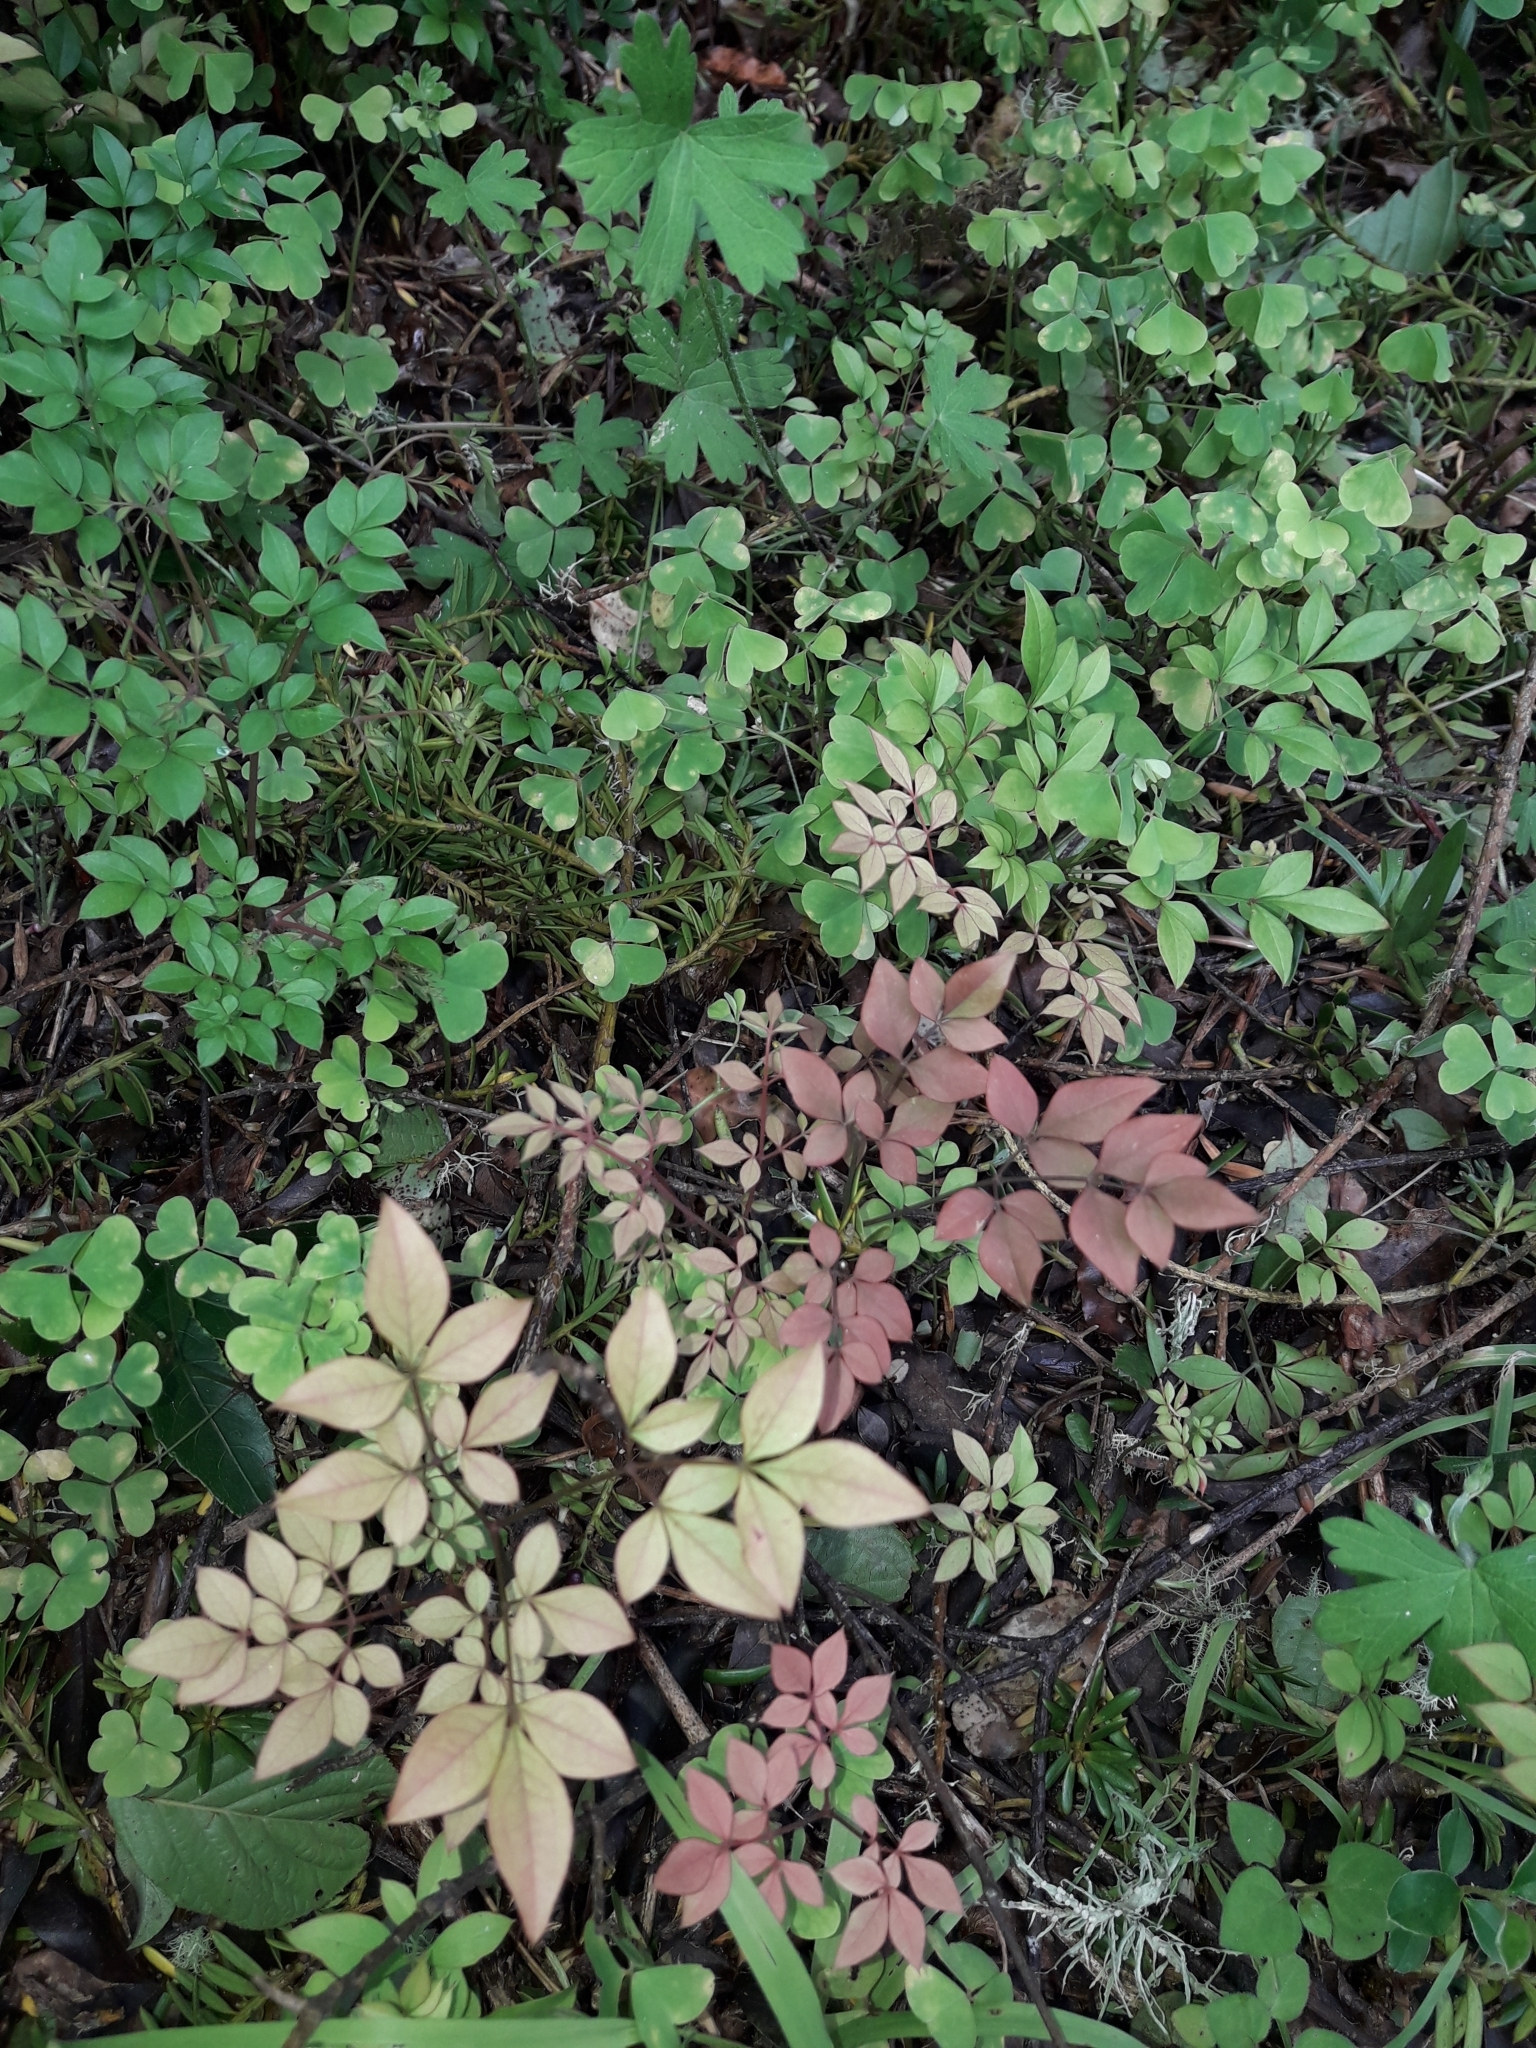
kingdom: Plantae
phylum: Tracheophyta
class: Magnoliopsida
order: Ranunculales
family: Berberidaceae
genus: Nandina
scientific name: Nandina domestica
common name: Sacred bamboo
